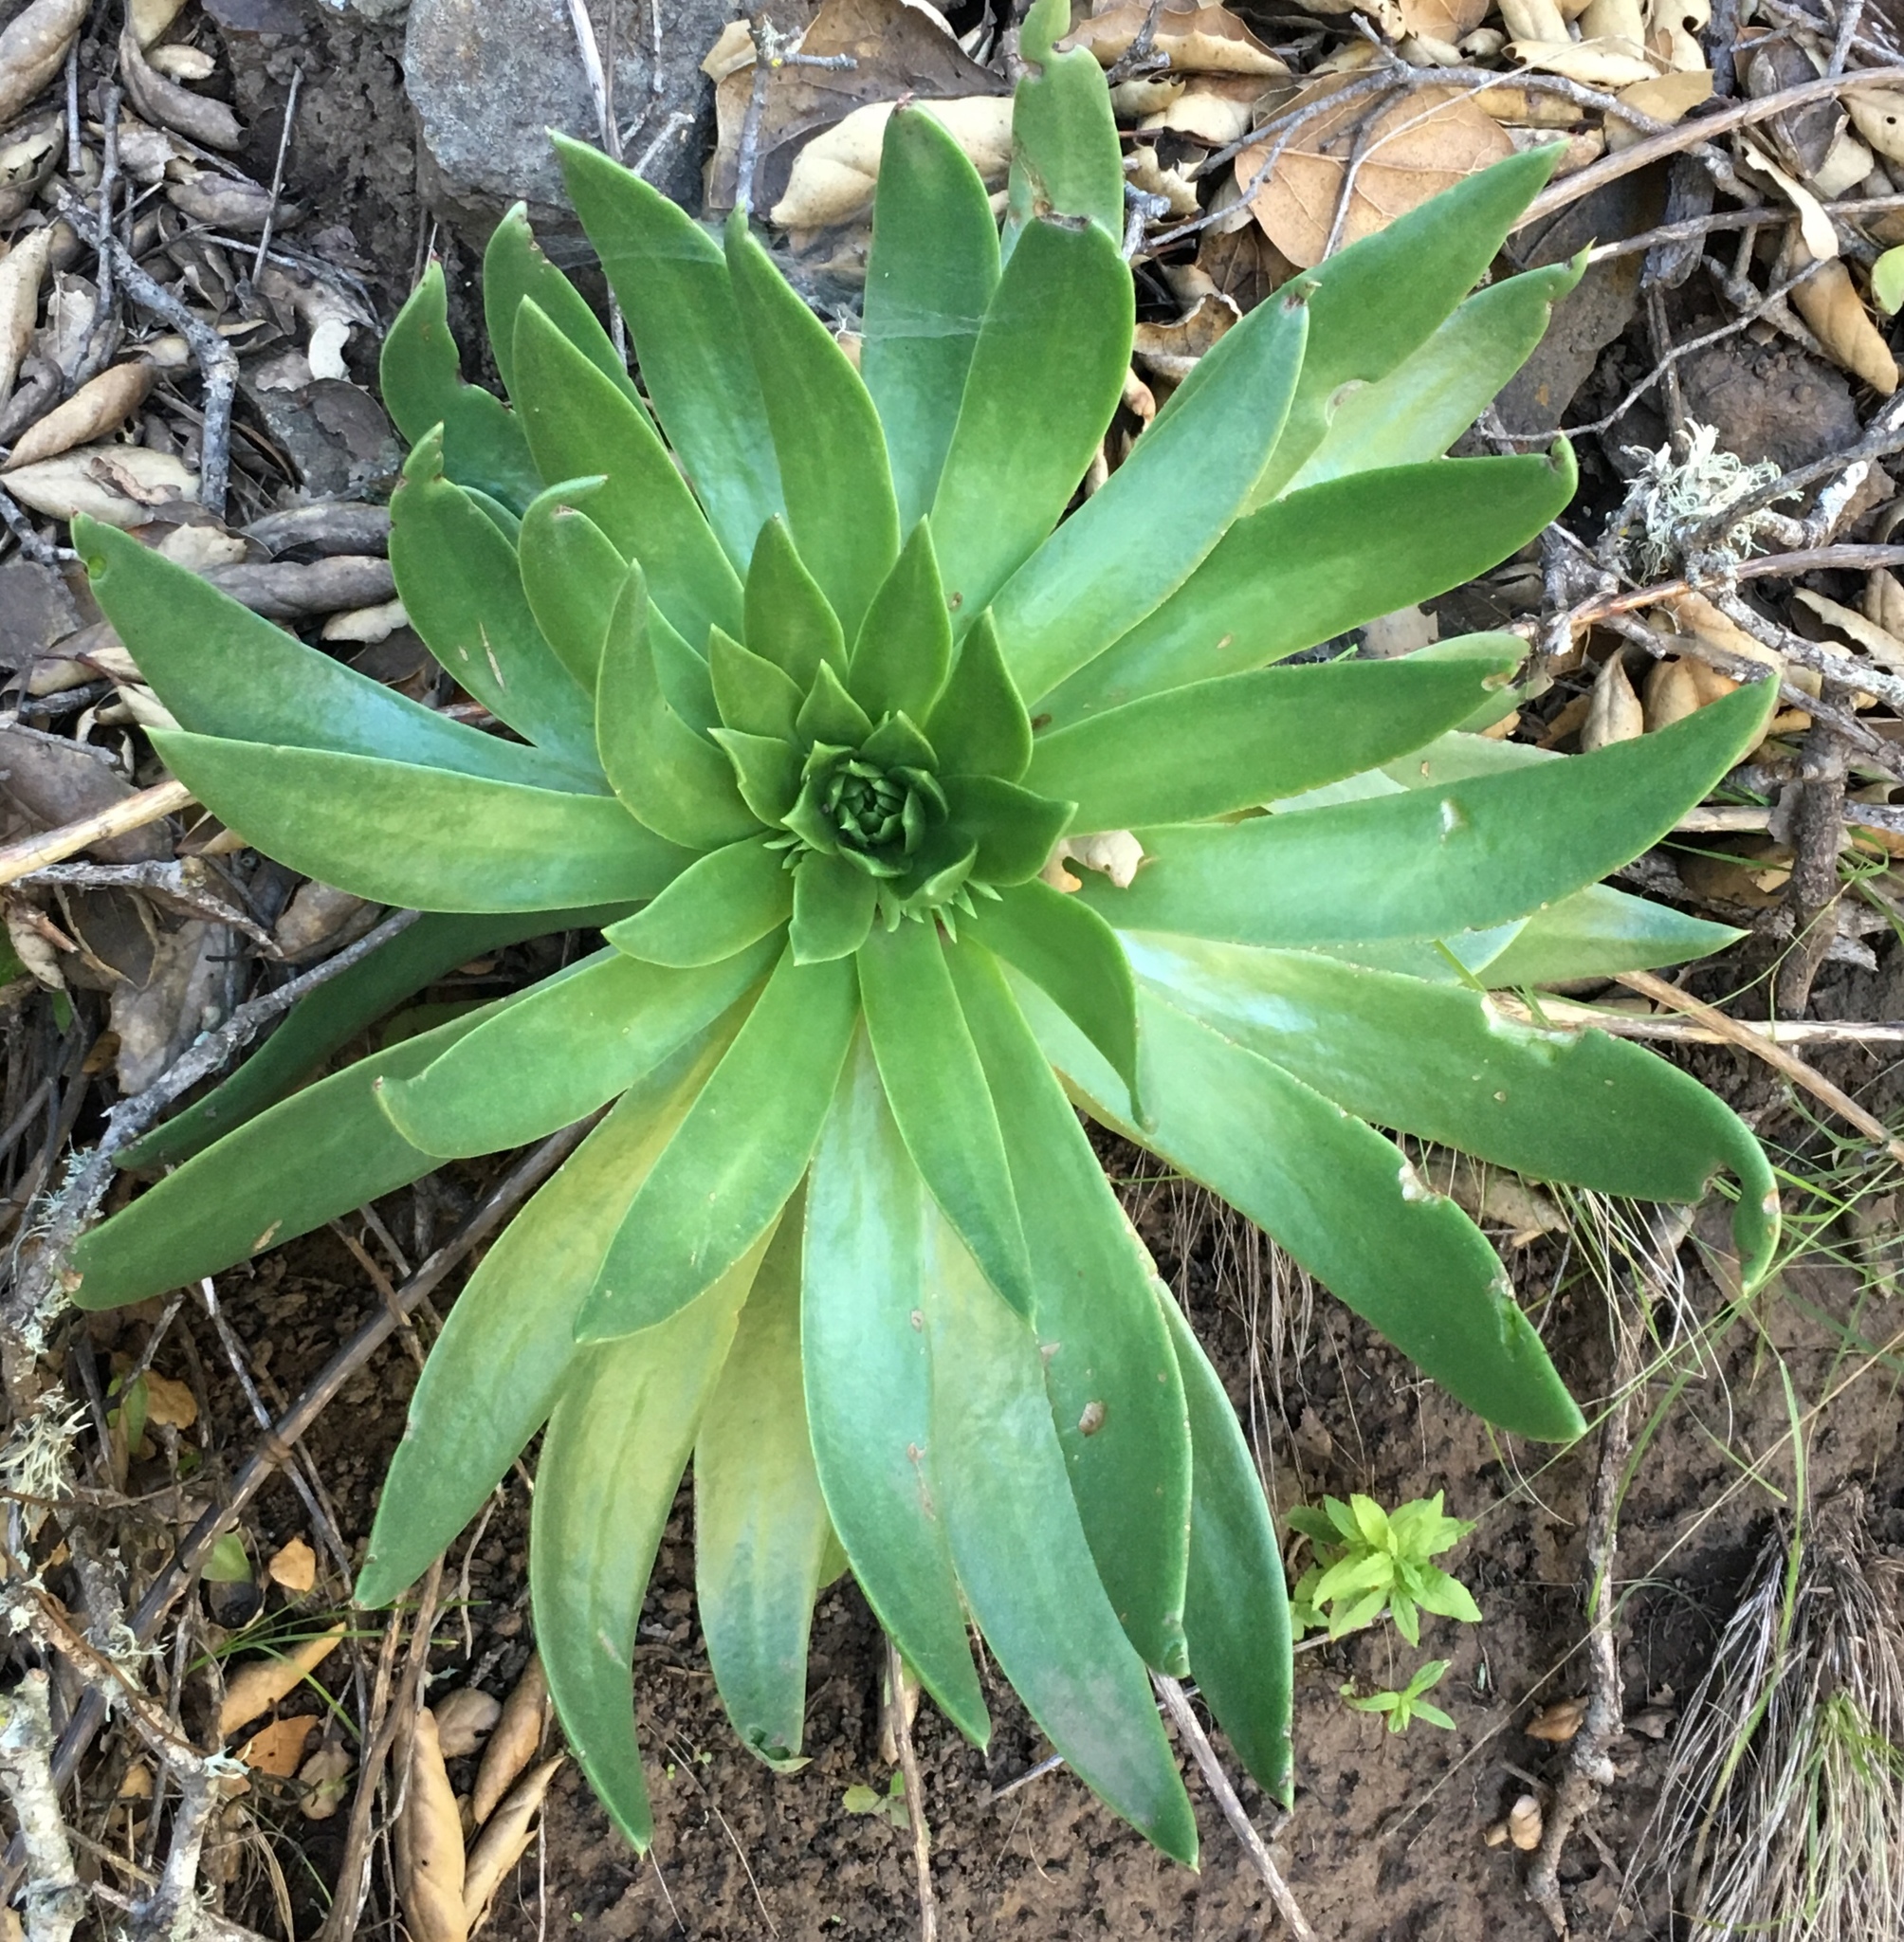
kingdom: Plantae
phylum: Tracheophyta
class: Magnoliopsida
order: Saxifragales
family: Crassulaceae
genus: Dudleya
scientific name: Dudleya candelabrum
